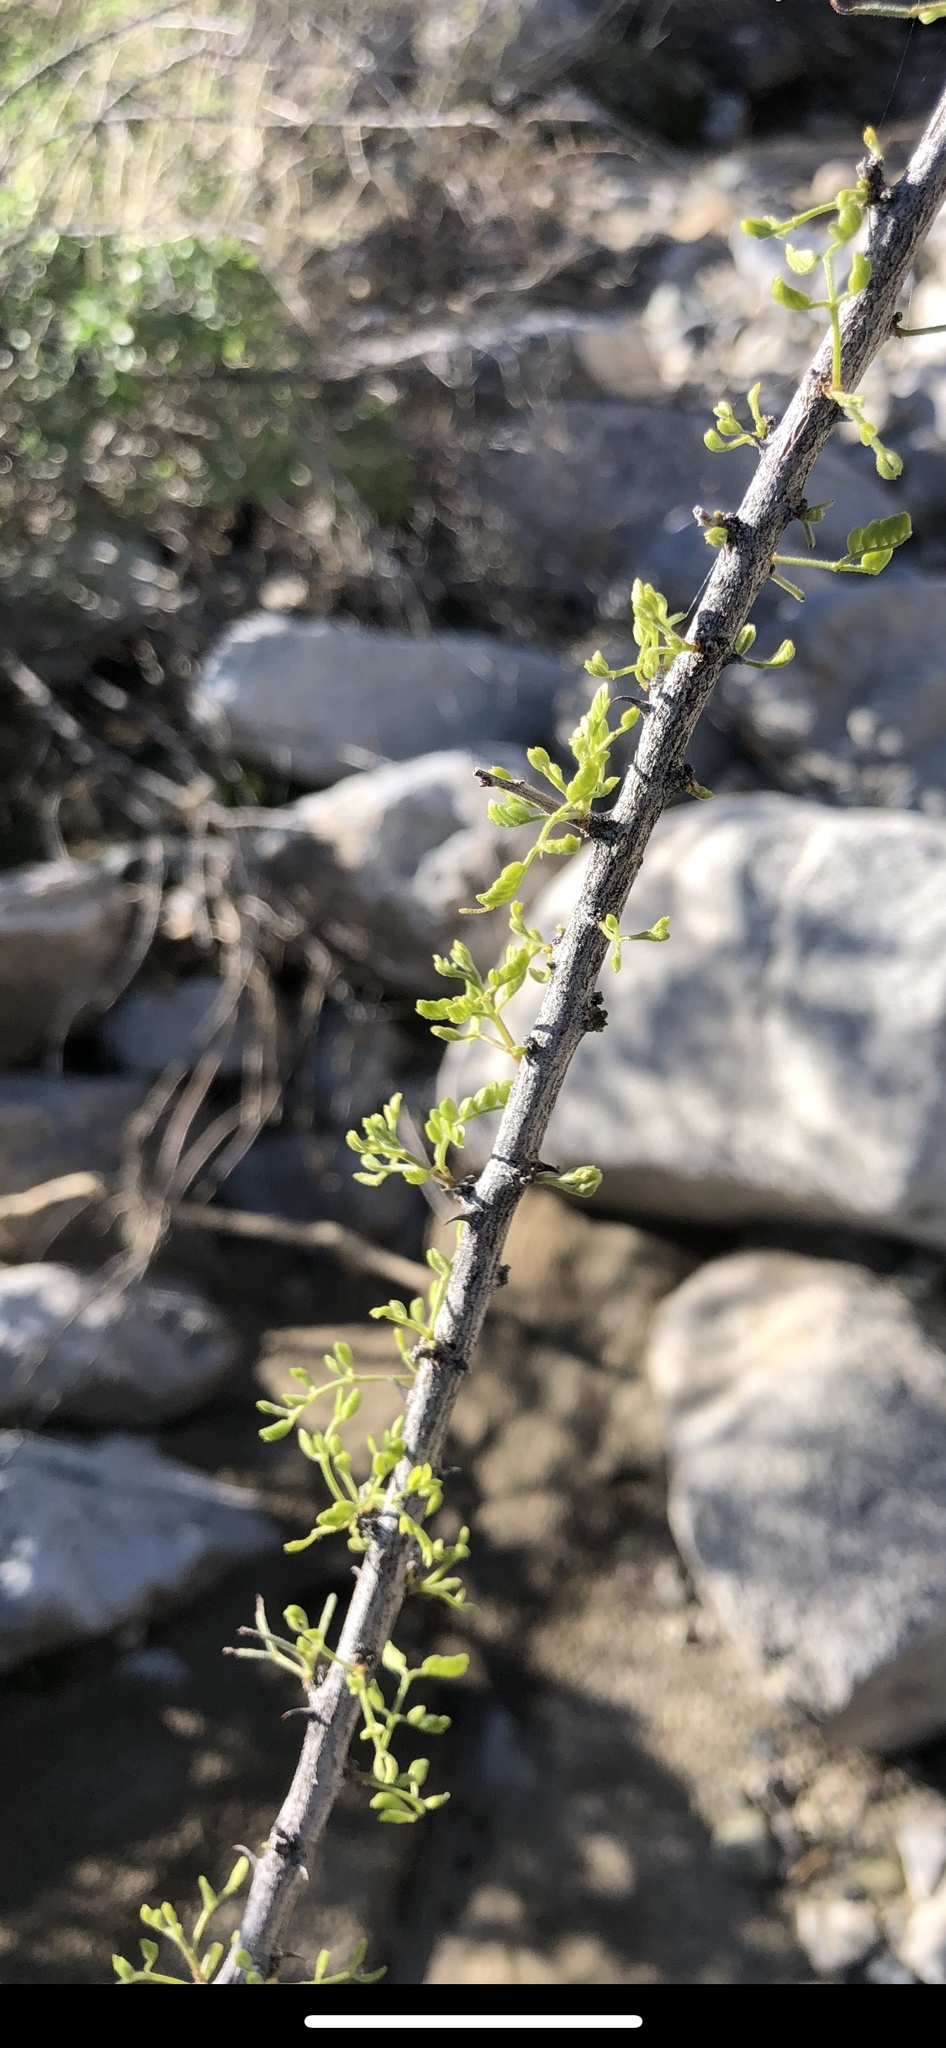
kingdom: Plantae
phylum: Tracheophyta
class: Magnoliopsida
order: Fabales
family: Fabaceae
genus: Senegalia
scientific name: Senegalia greggii
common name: Texas-mimosa
